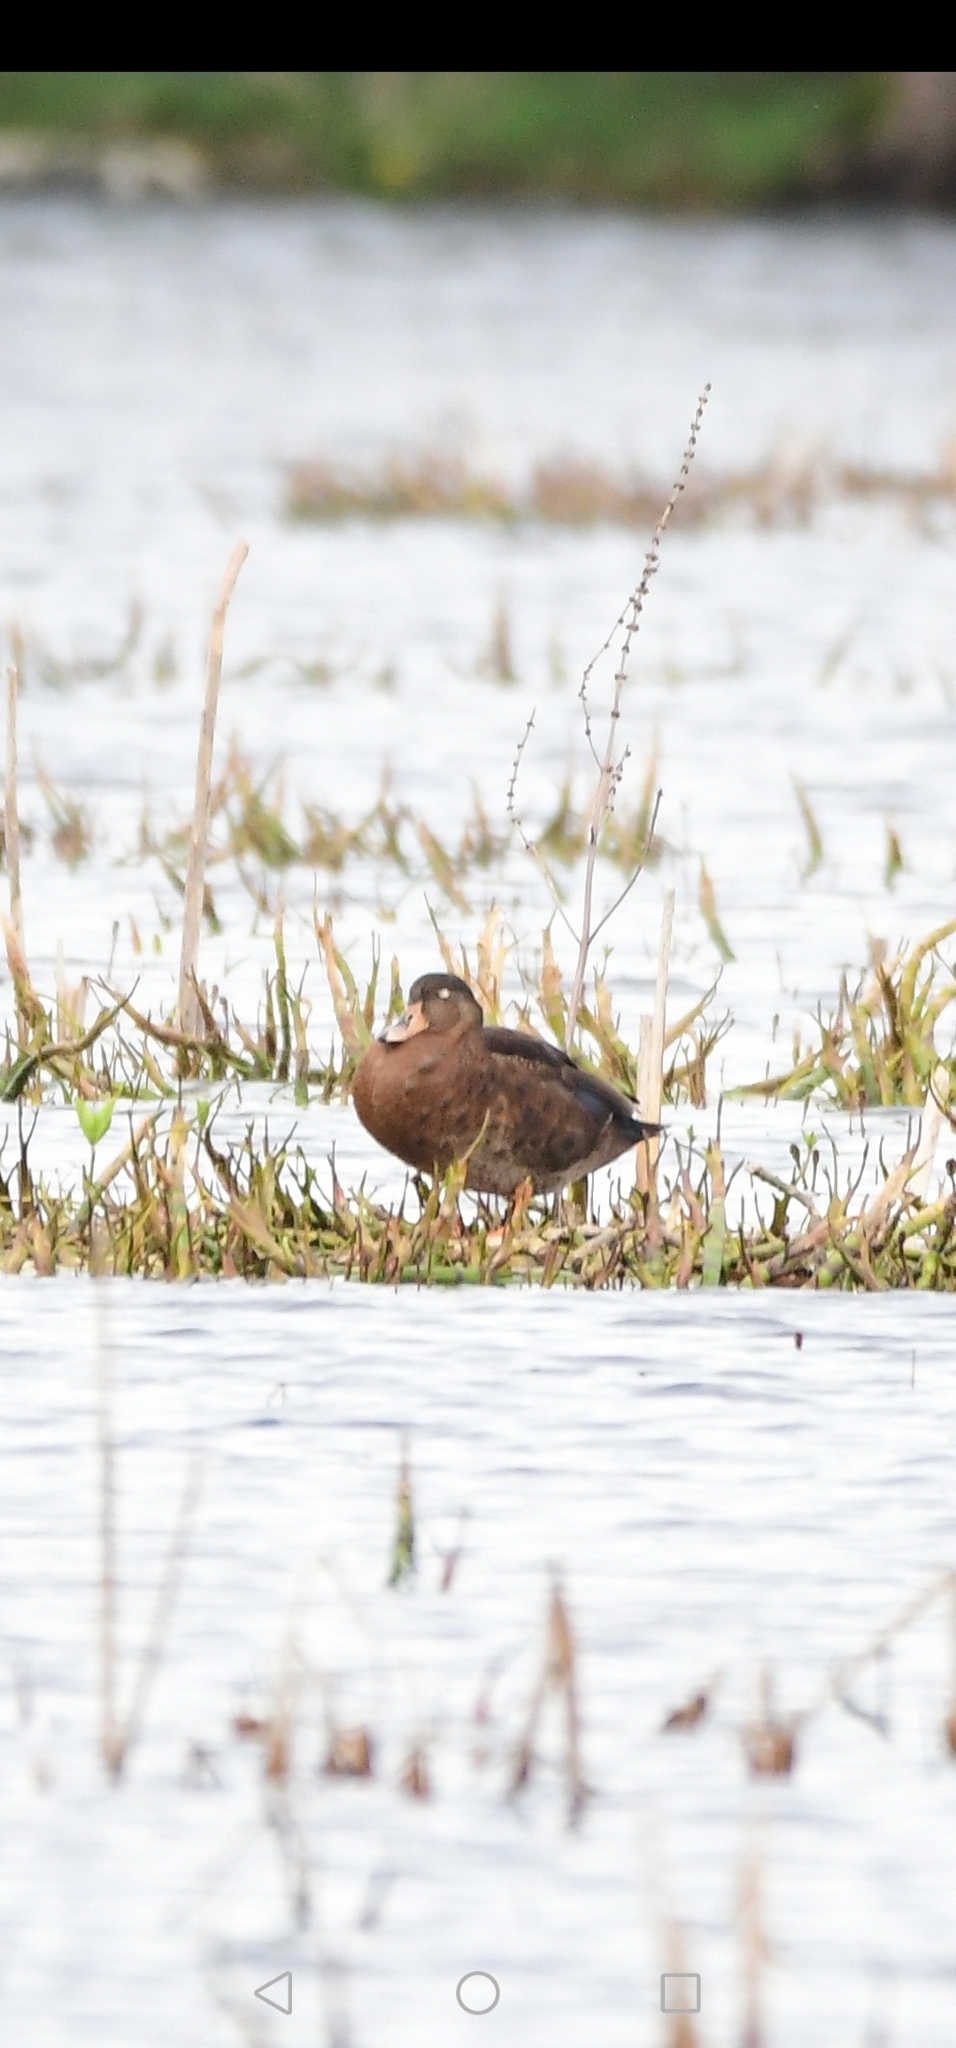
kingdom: Animalia
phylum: Chordata
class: Aves
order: Anseriformes
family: Anatidae
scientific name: Anatidae
